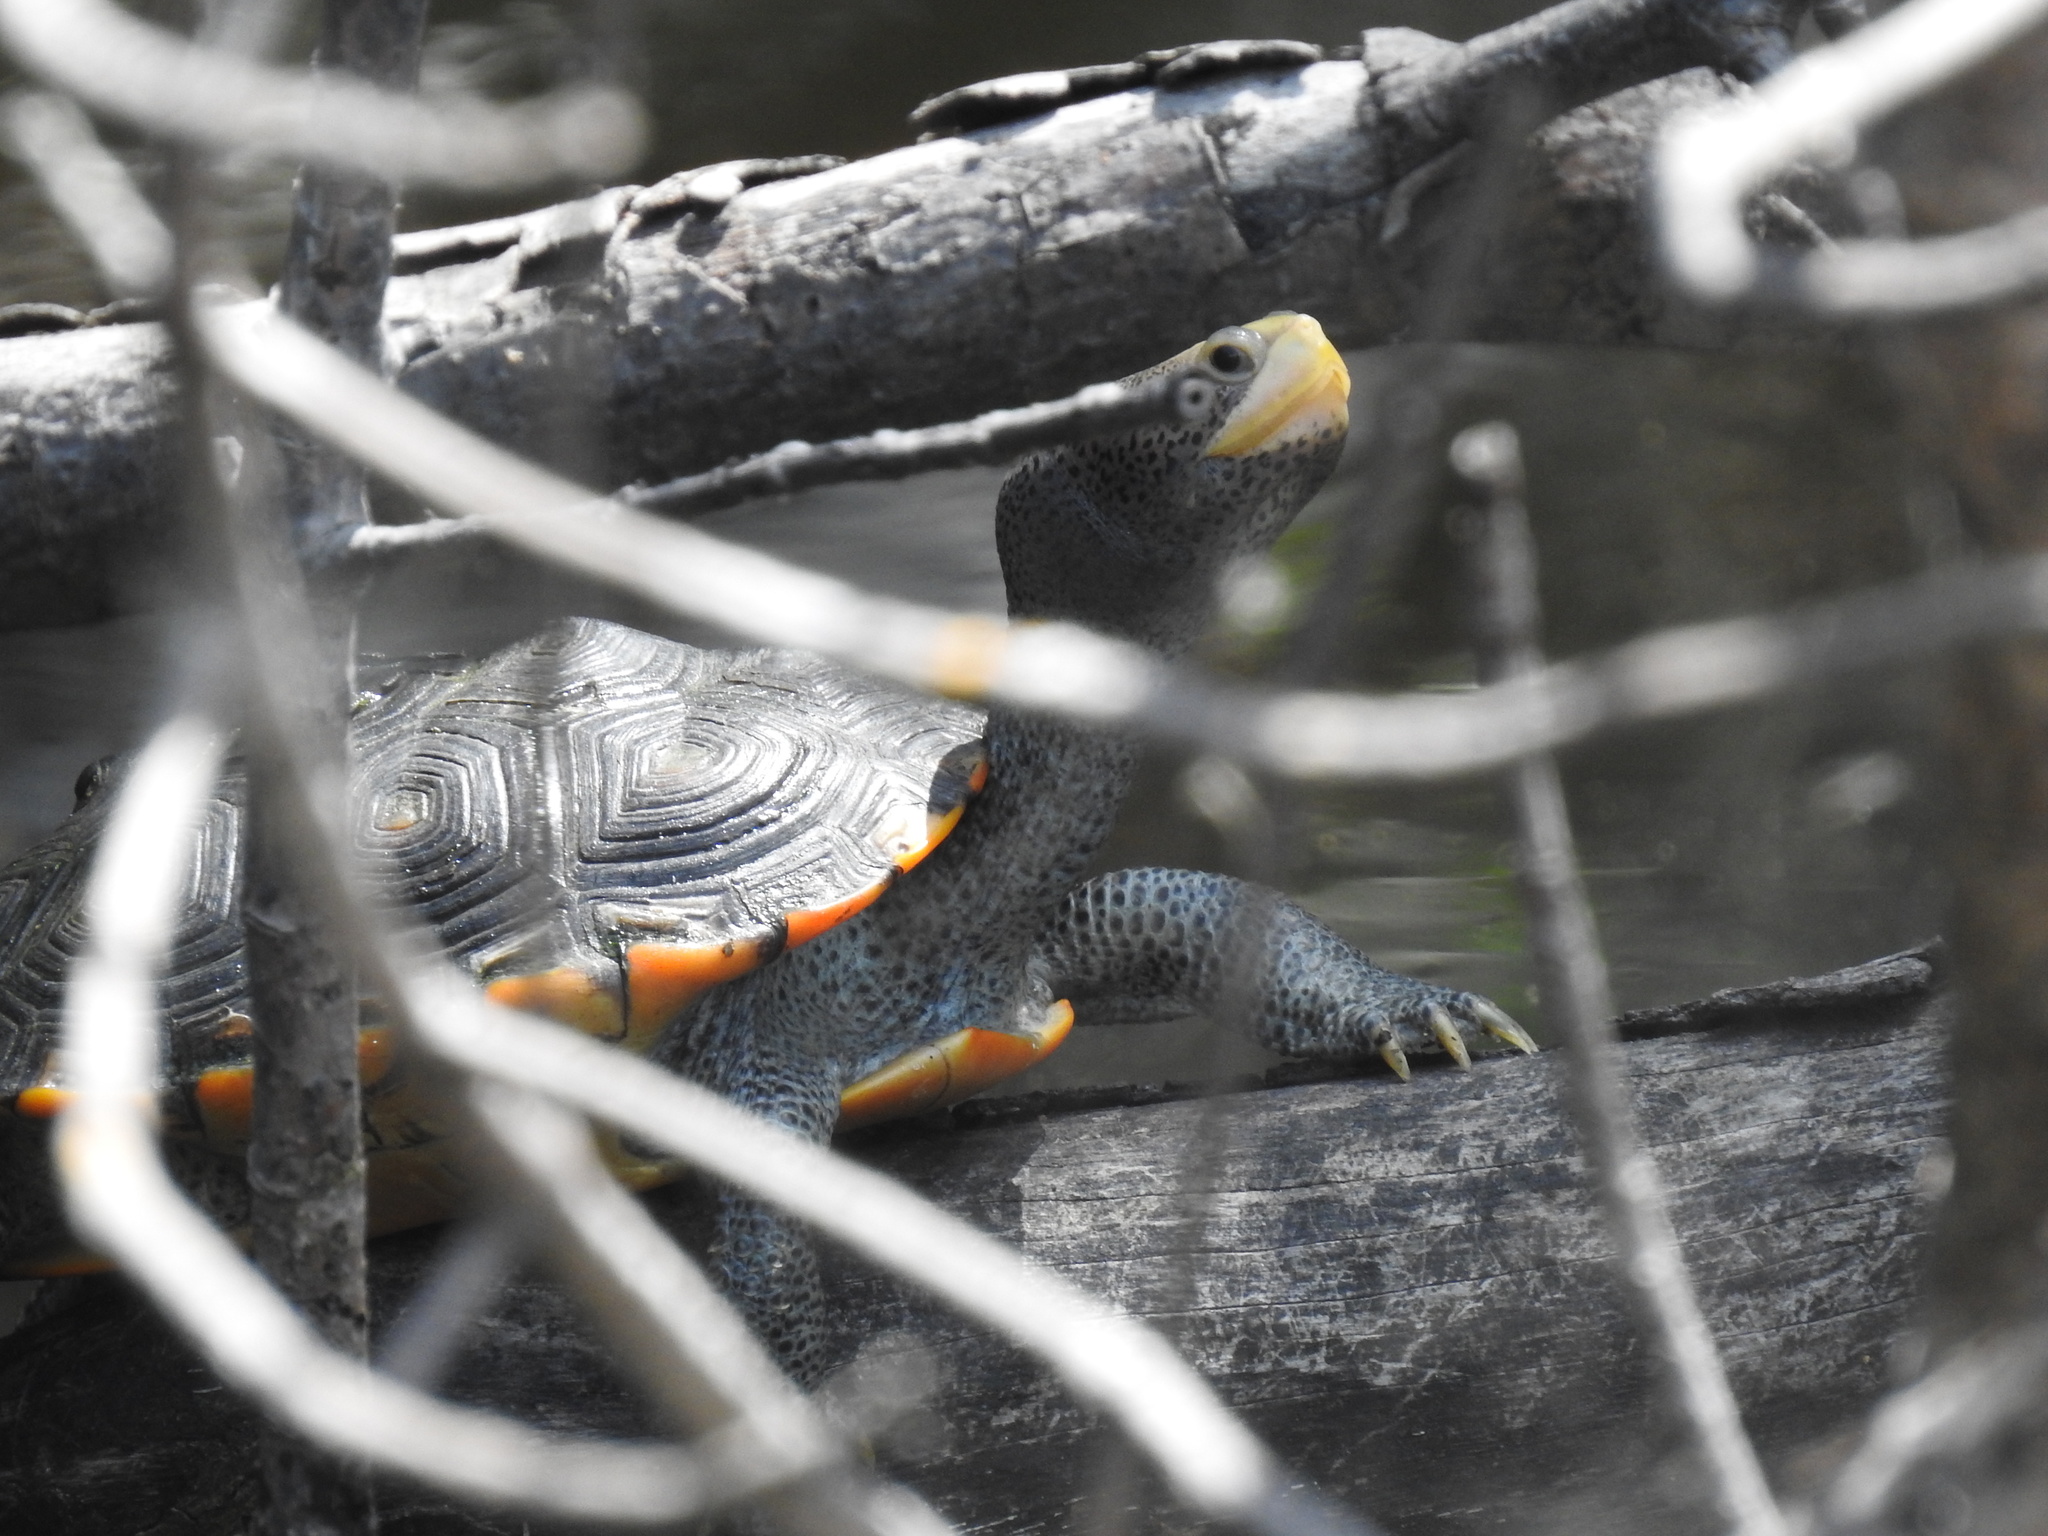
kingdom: Animalia
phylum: Chordata
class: Testudines
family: Emydidae
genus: Malaclemys
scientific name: Malaclemys terrapin
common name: Diamondback terrapin
